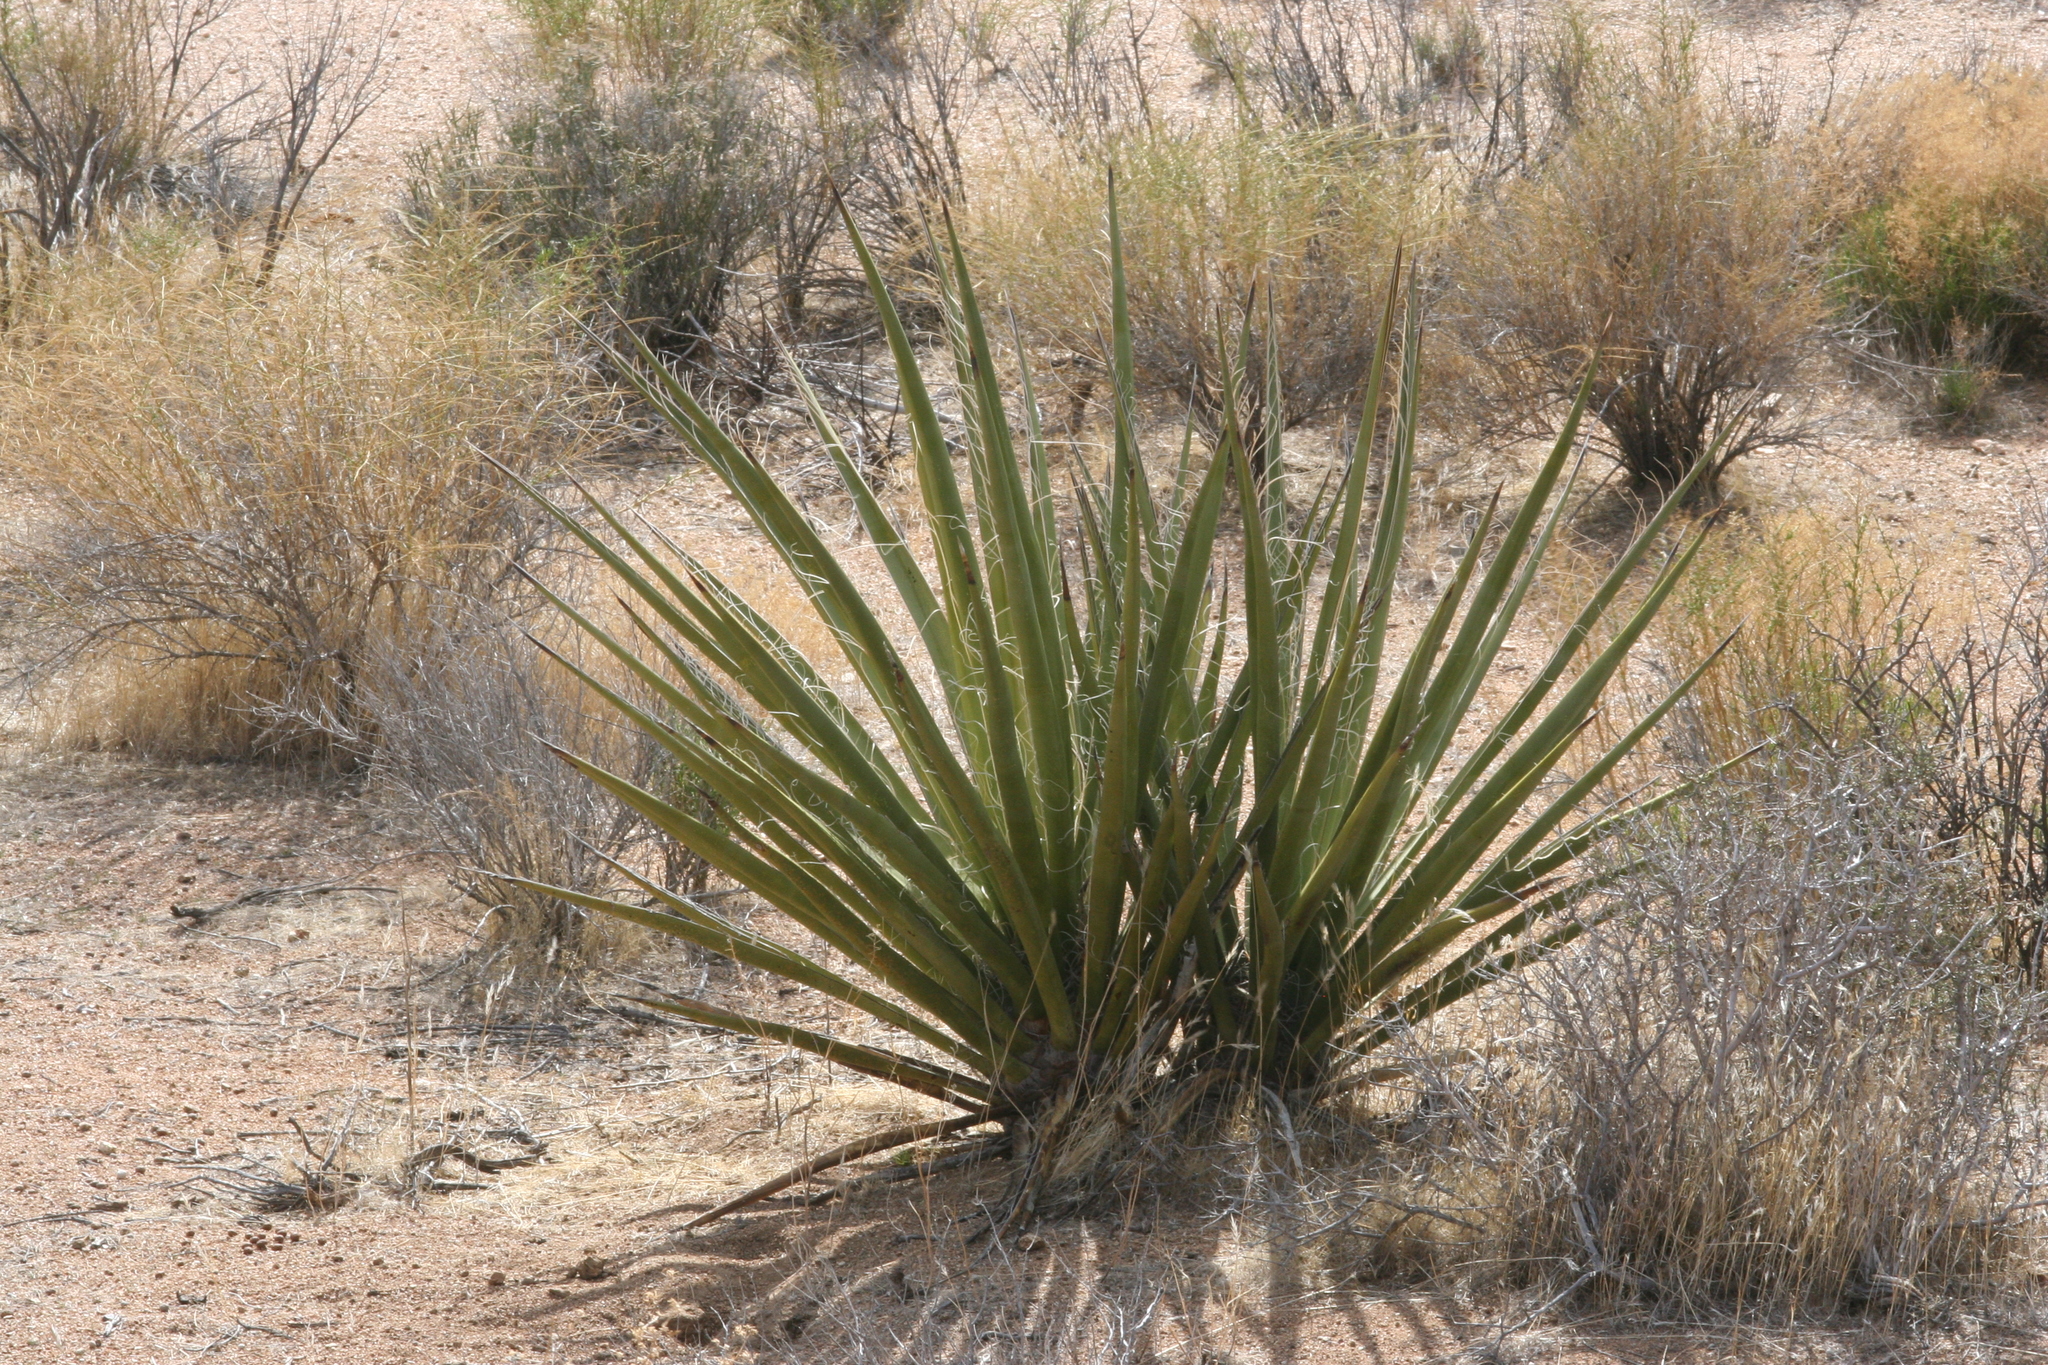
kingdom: Plantae
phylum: Tracheophyta
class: Liliopsida
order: Asparagales
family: Asparagaceae
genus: Yucca
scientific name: Yucca schidigera
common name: Mojave yucca
